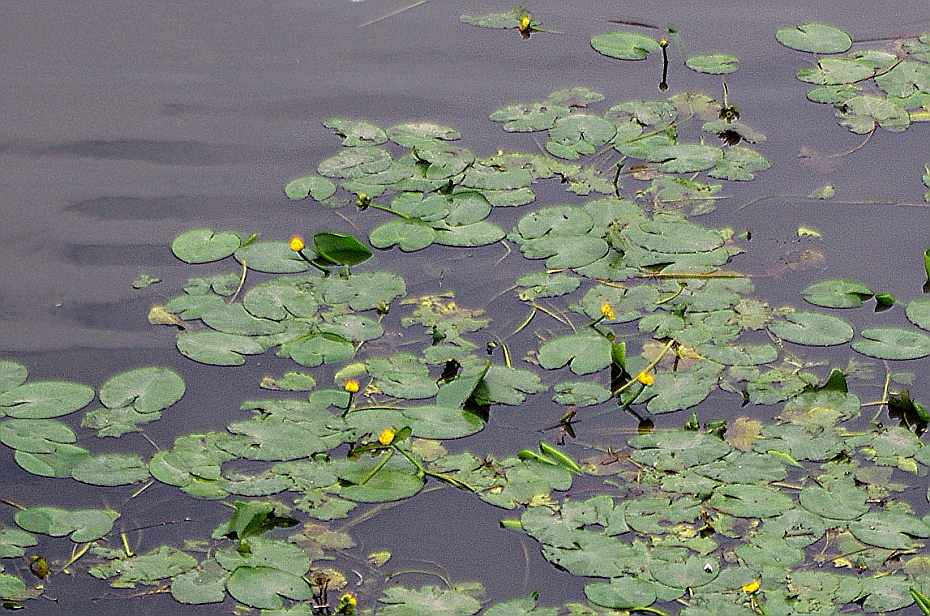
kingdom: Plantae
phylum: Tracheophyta
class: Magnoliopsida
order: Nymphaeales
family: Nymphaeaceae
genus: Nuphar
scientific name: Nuphar lutea
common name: Yellow water-lily
